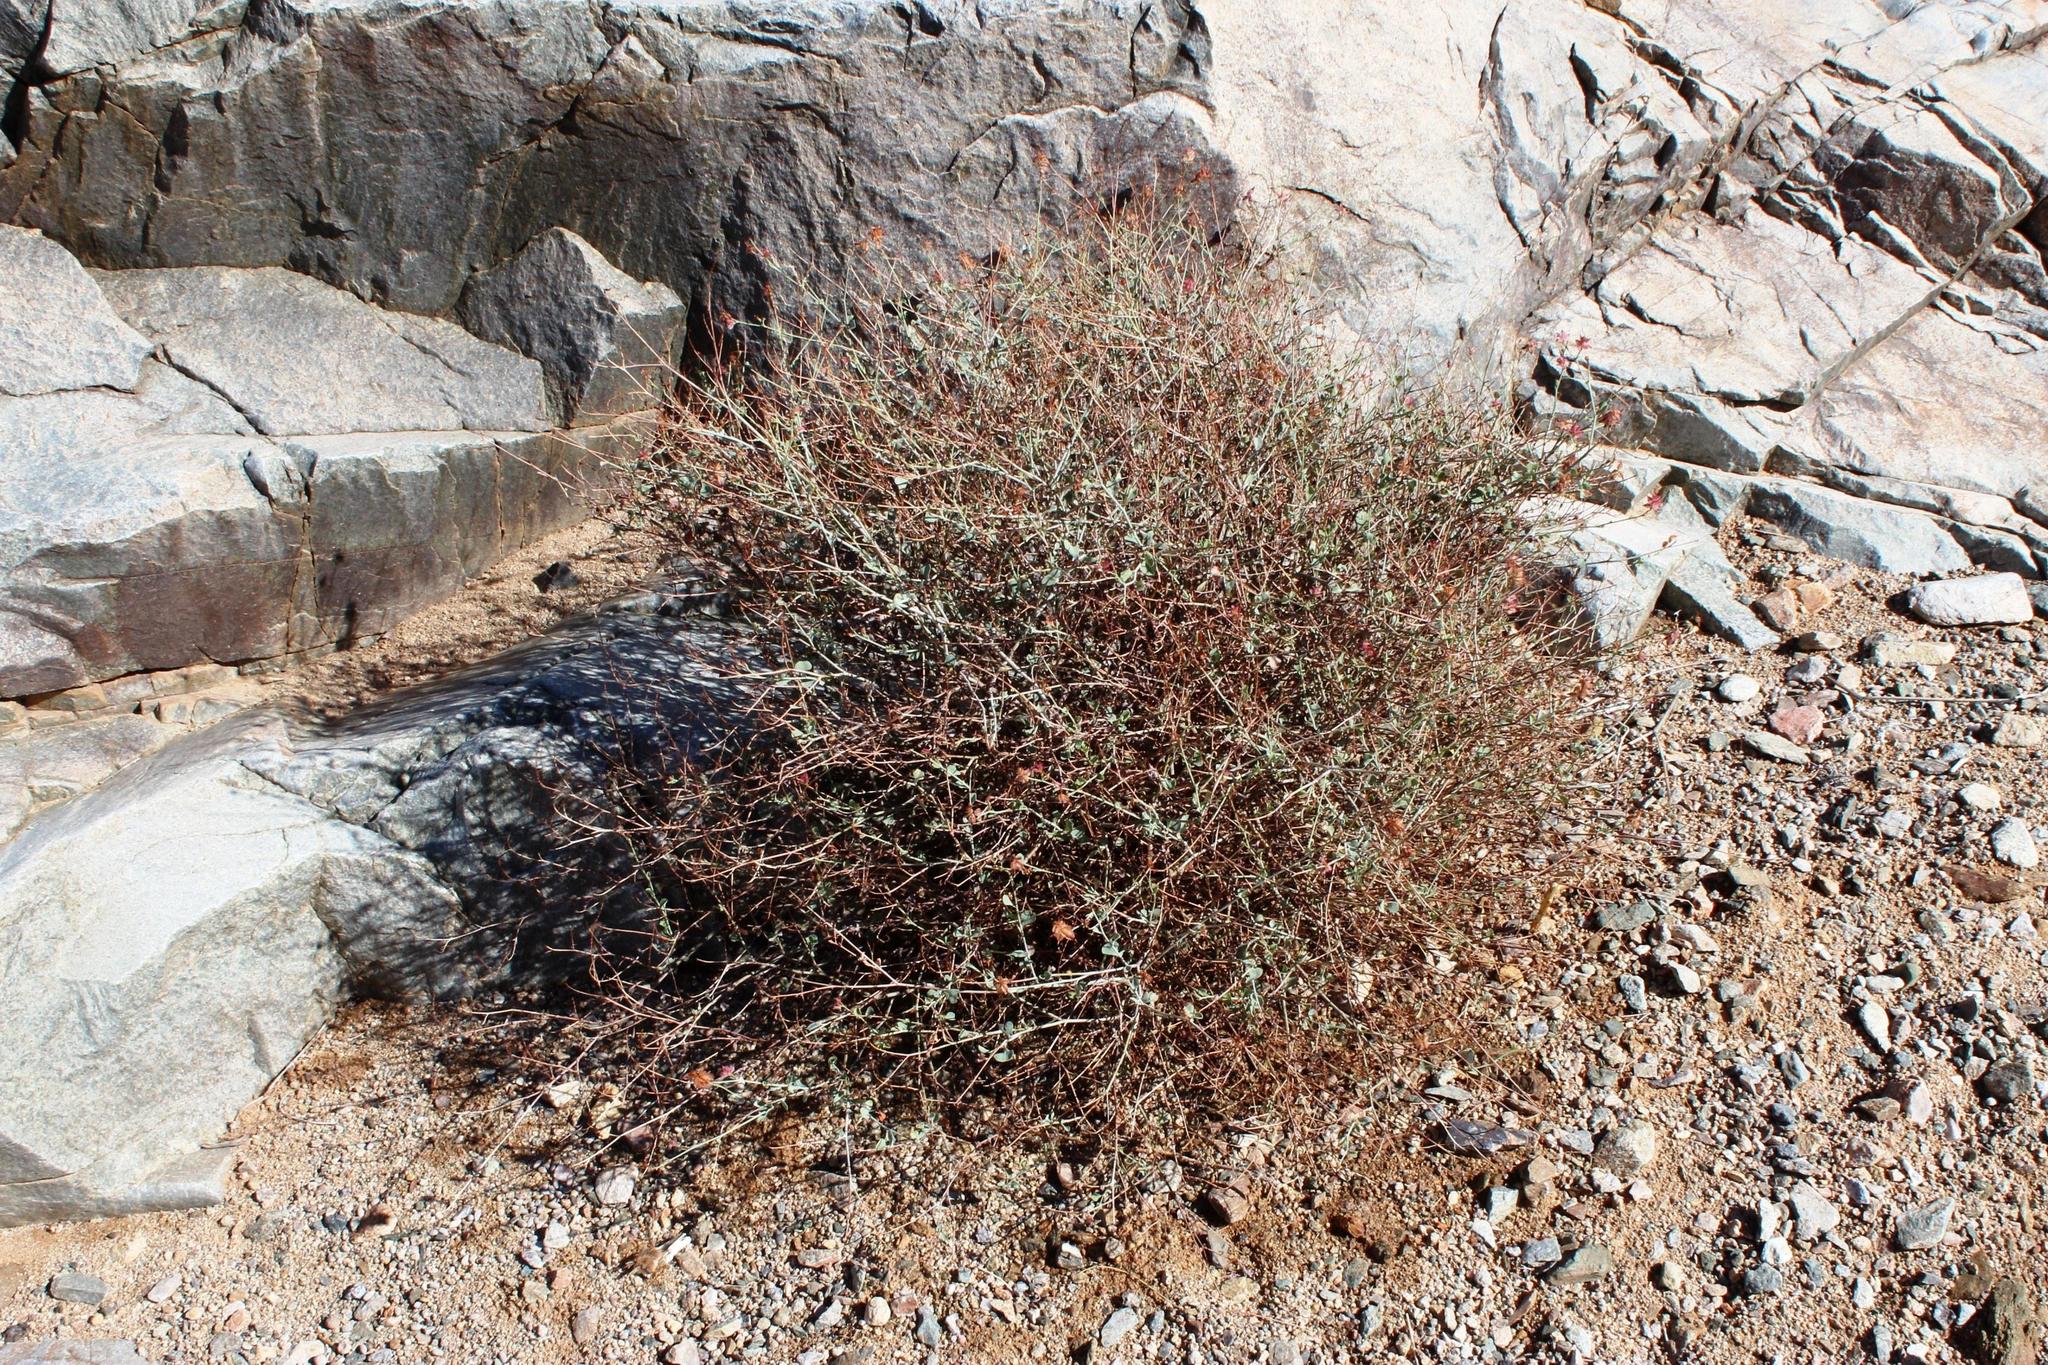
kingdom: Plantae
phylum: Tracheophyta
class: Magnoliopsida
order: Caryophyllales
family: Plumbaginaceae
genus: Dyerophytum
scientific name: Dyerophytum africanum
